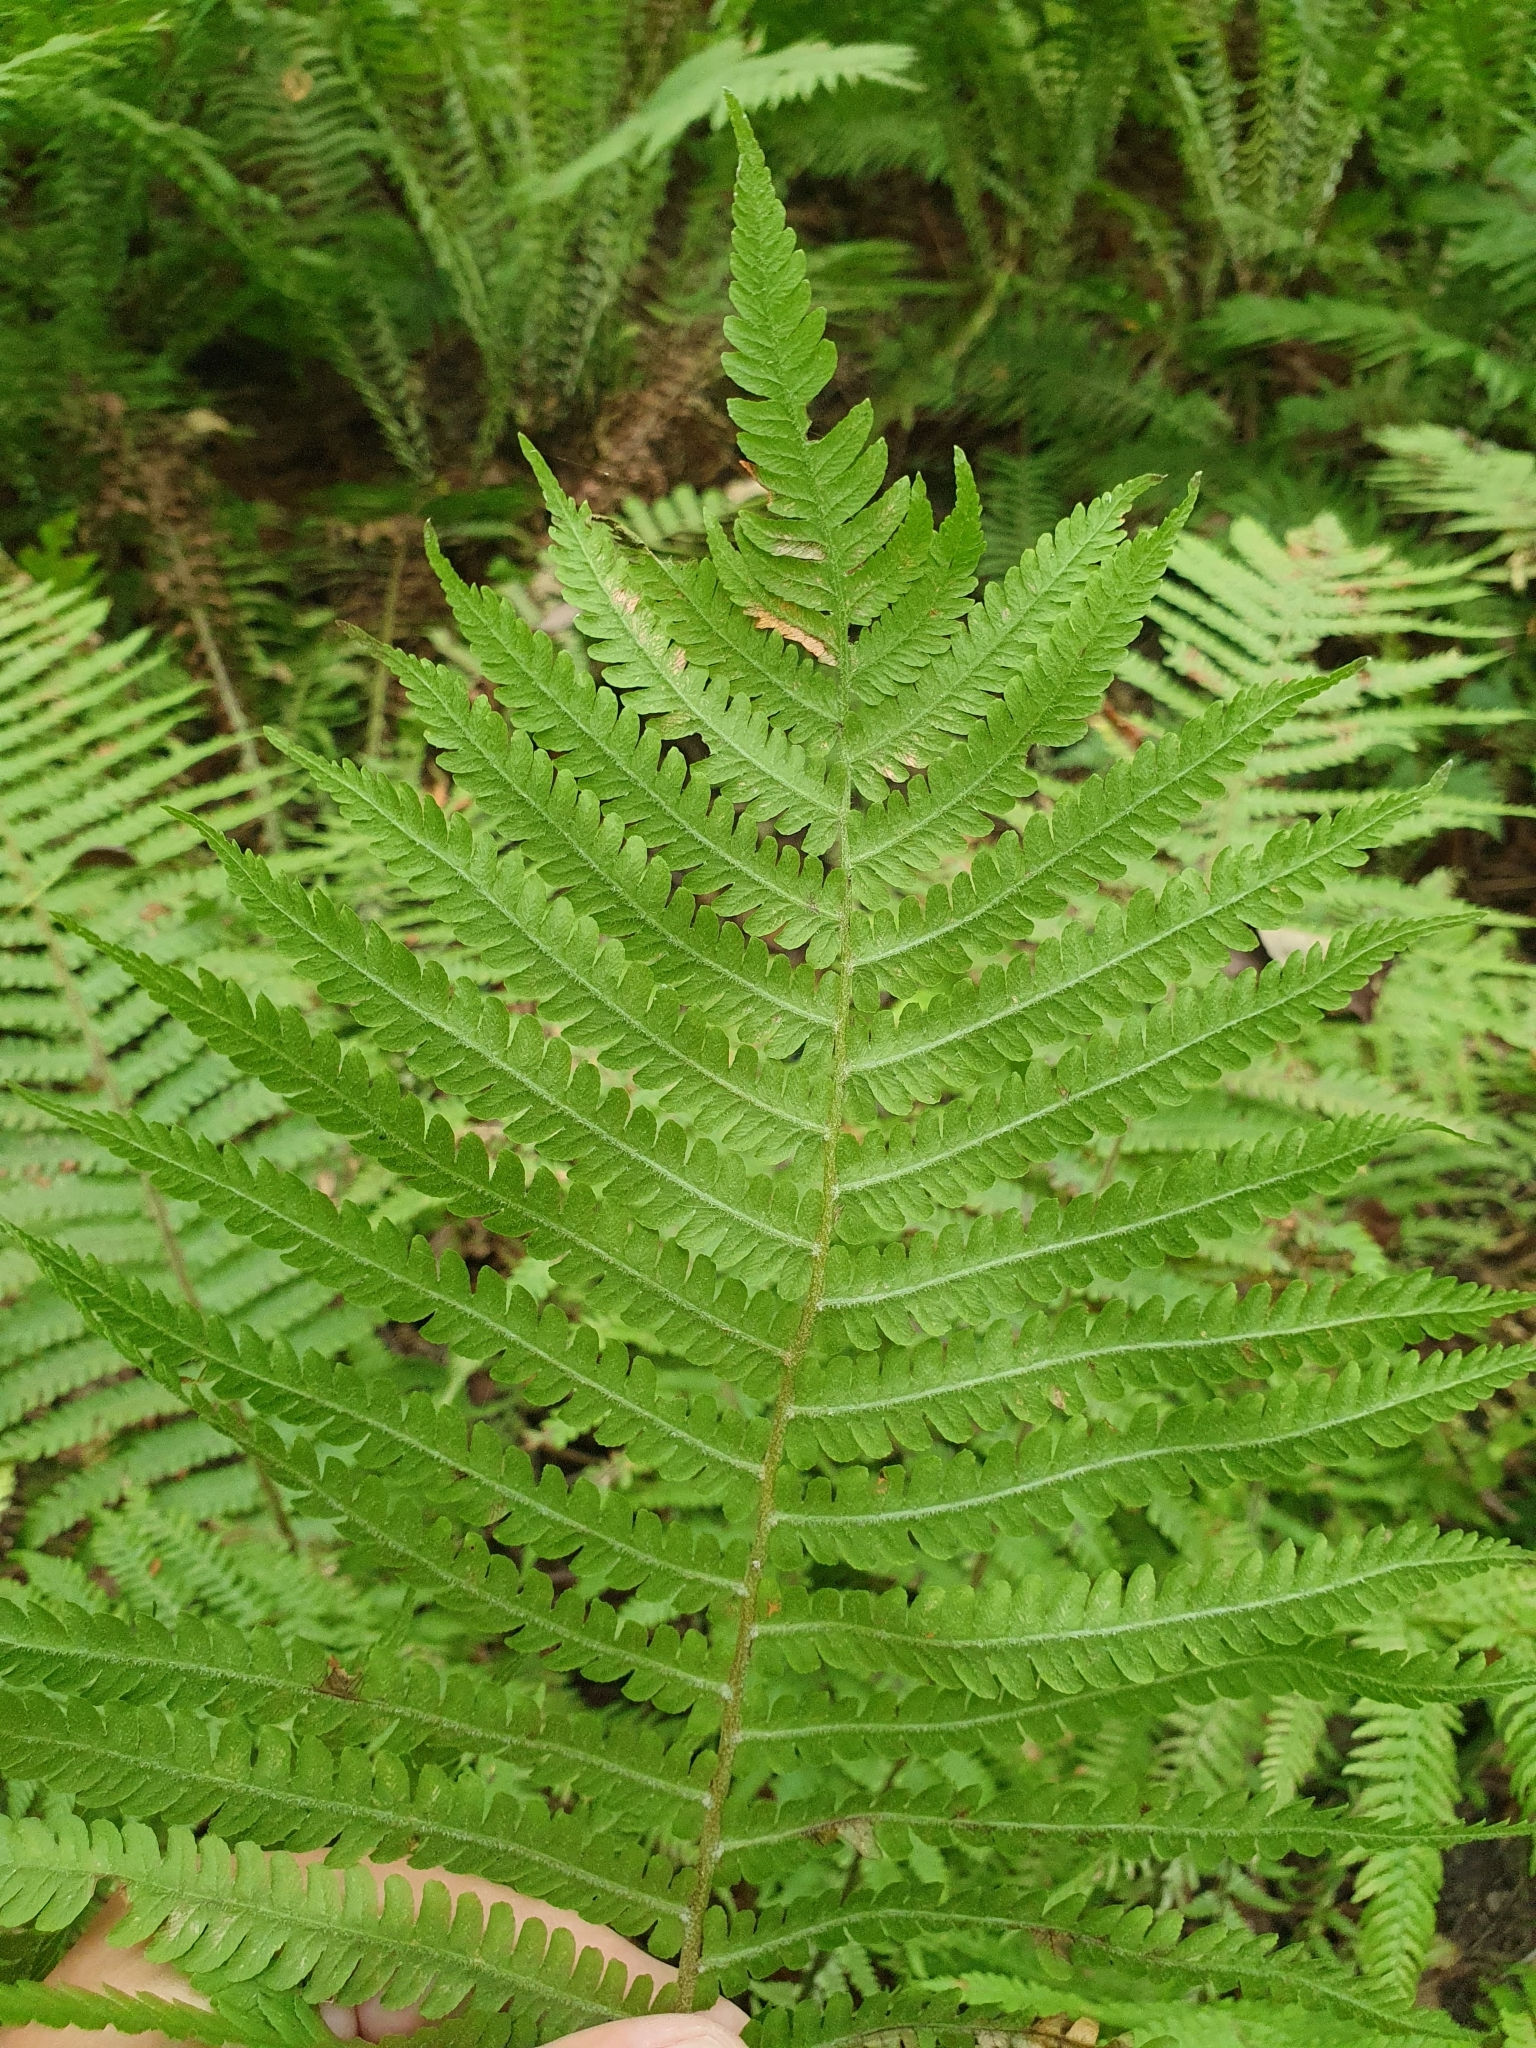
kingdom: Plantae
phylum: Tracheophyta
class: Polypodiopsida
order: Polypodiales
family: Onocleaceae
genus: Matteuccia
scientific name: Matteuccia struthiopteris
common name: Ostrich fern
